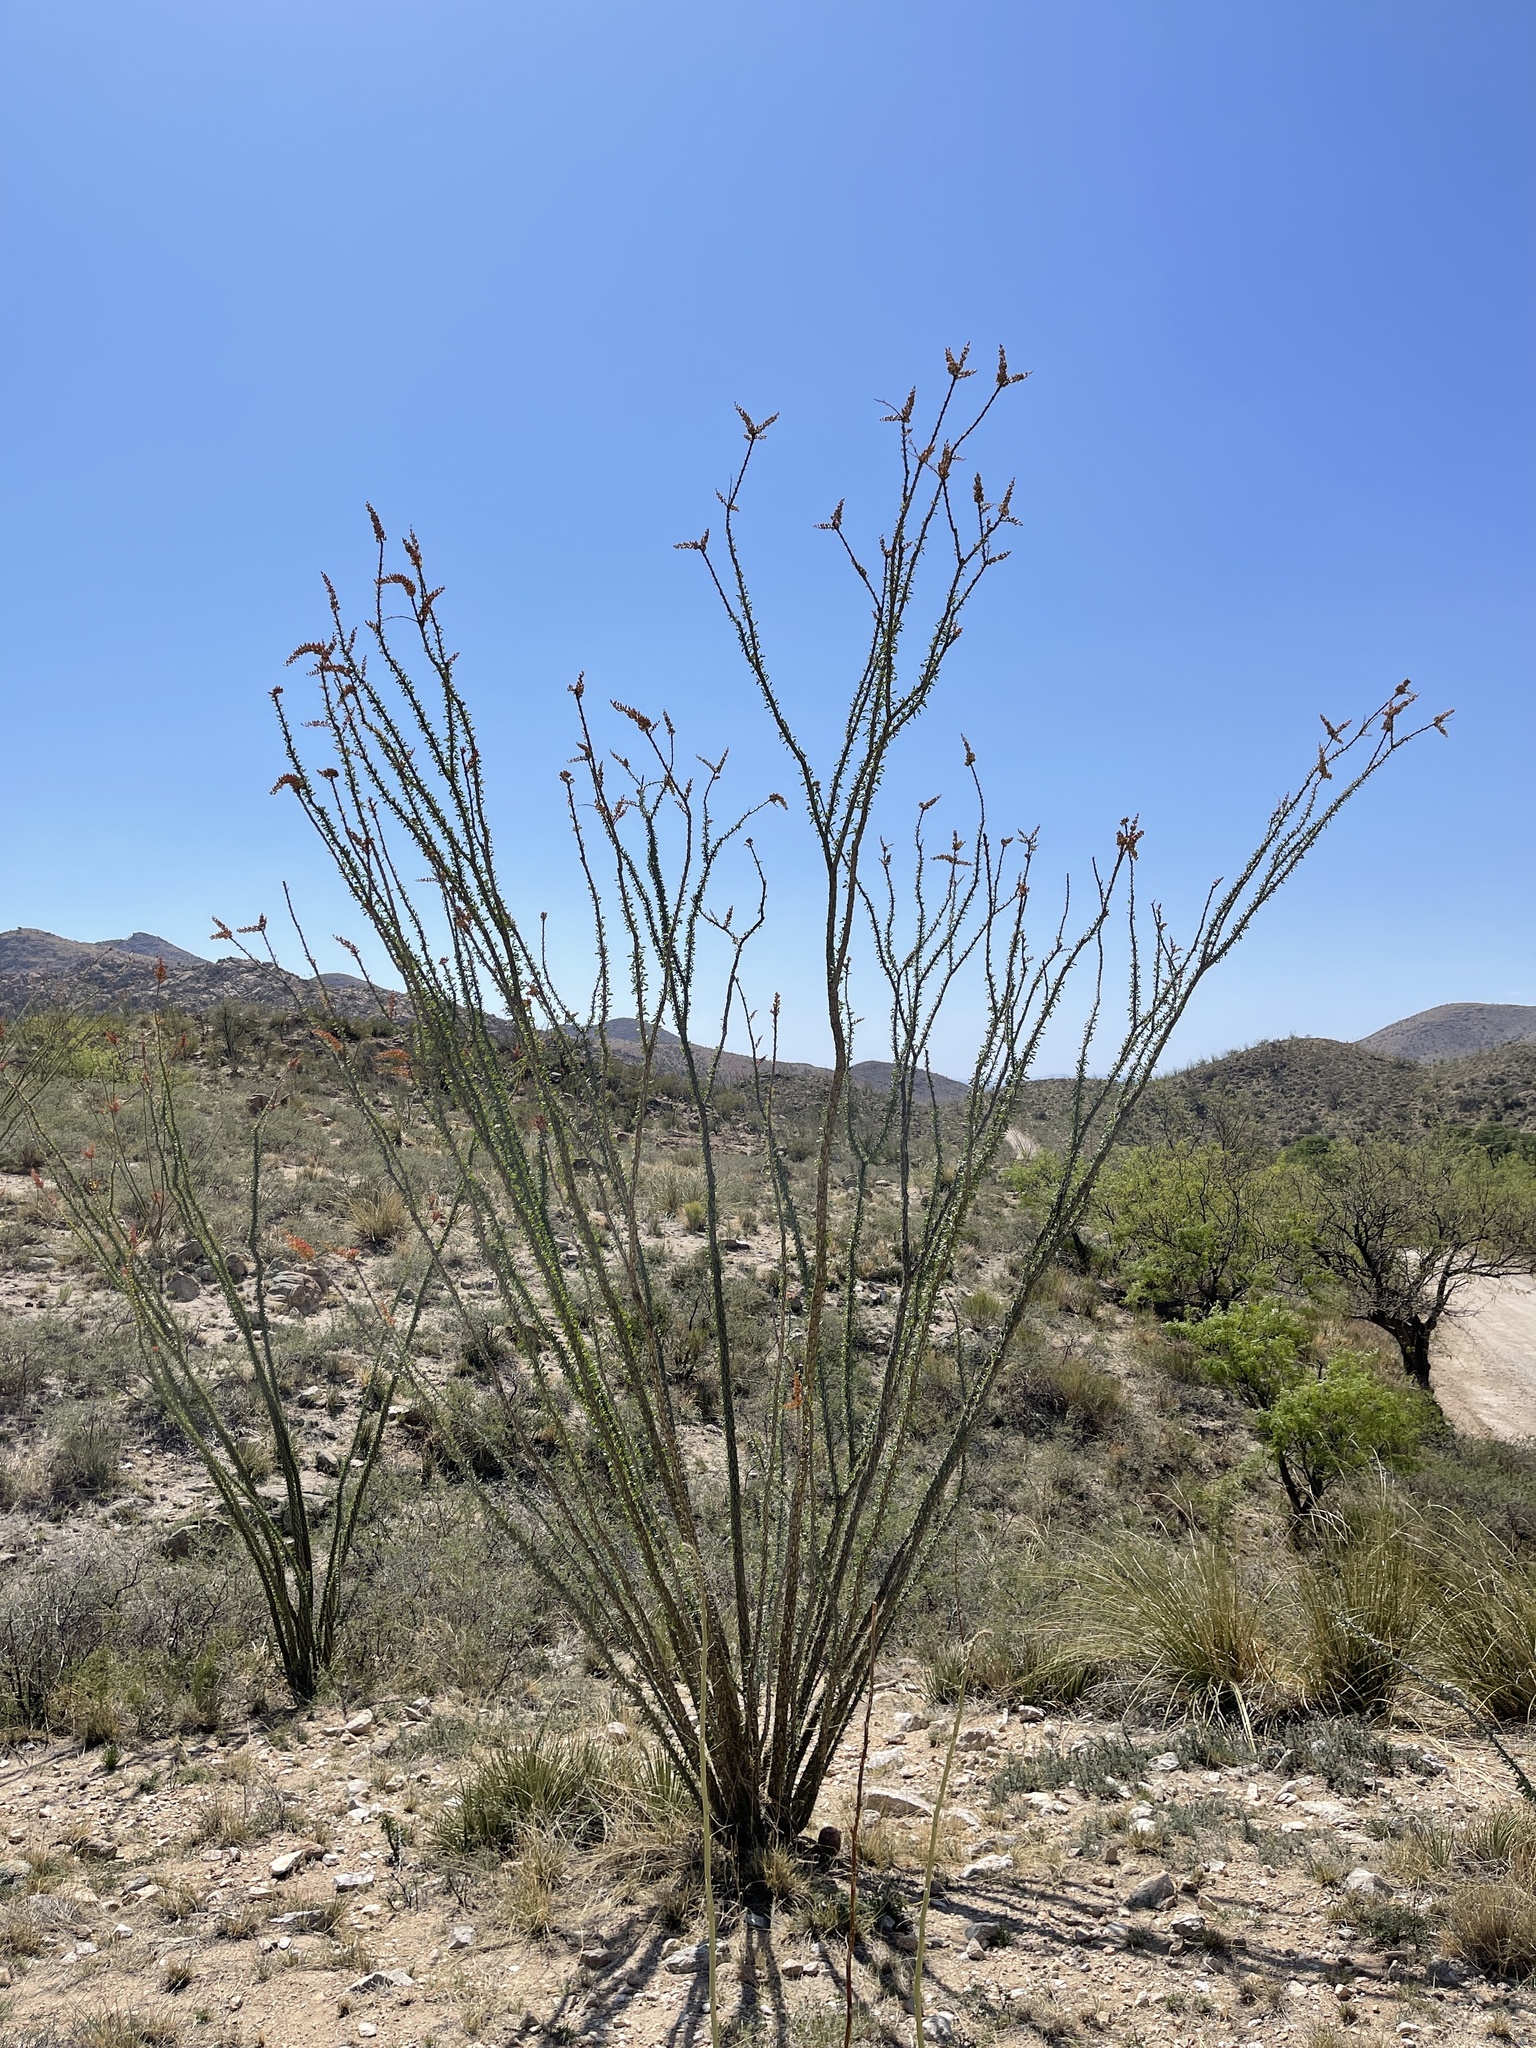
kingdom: Plantae
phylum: Tracheophyta
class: Magnoliopsida
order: Ericales
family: Fouquieriaceae
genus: Fouquieria
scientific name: Fouquieria splendens
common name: Vine-cactus
